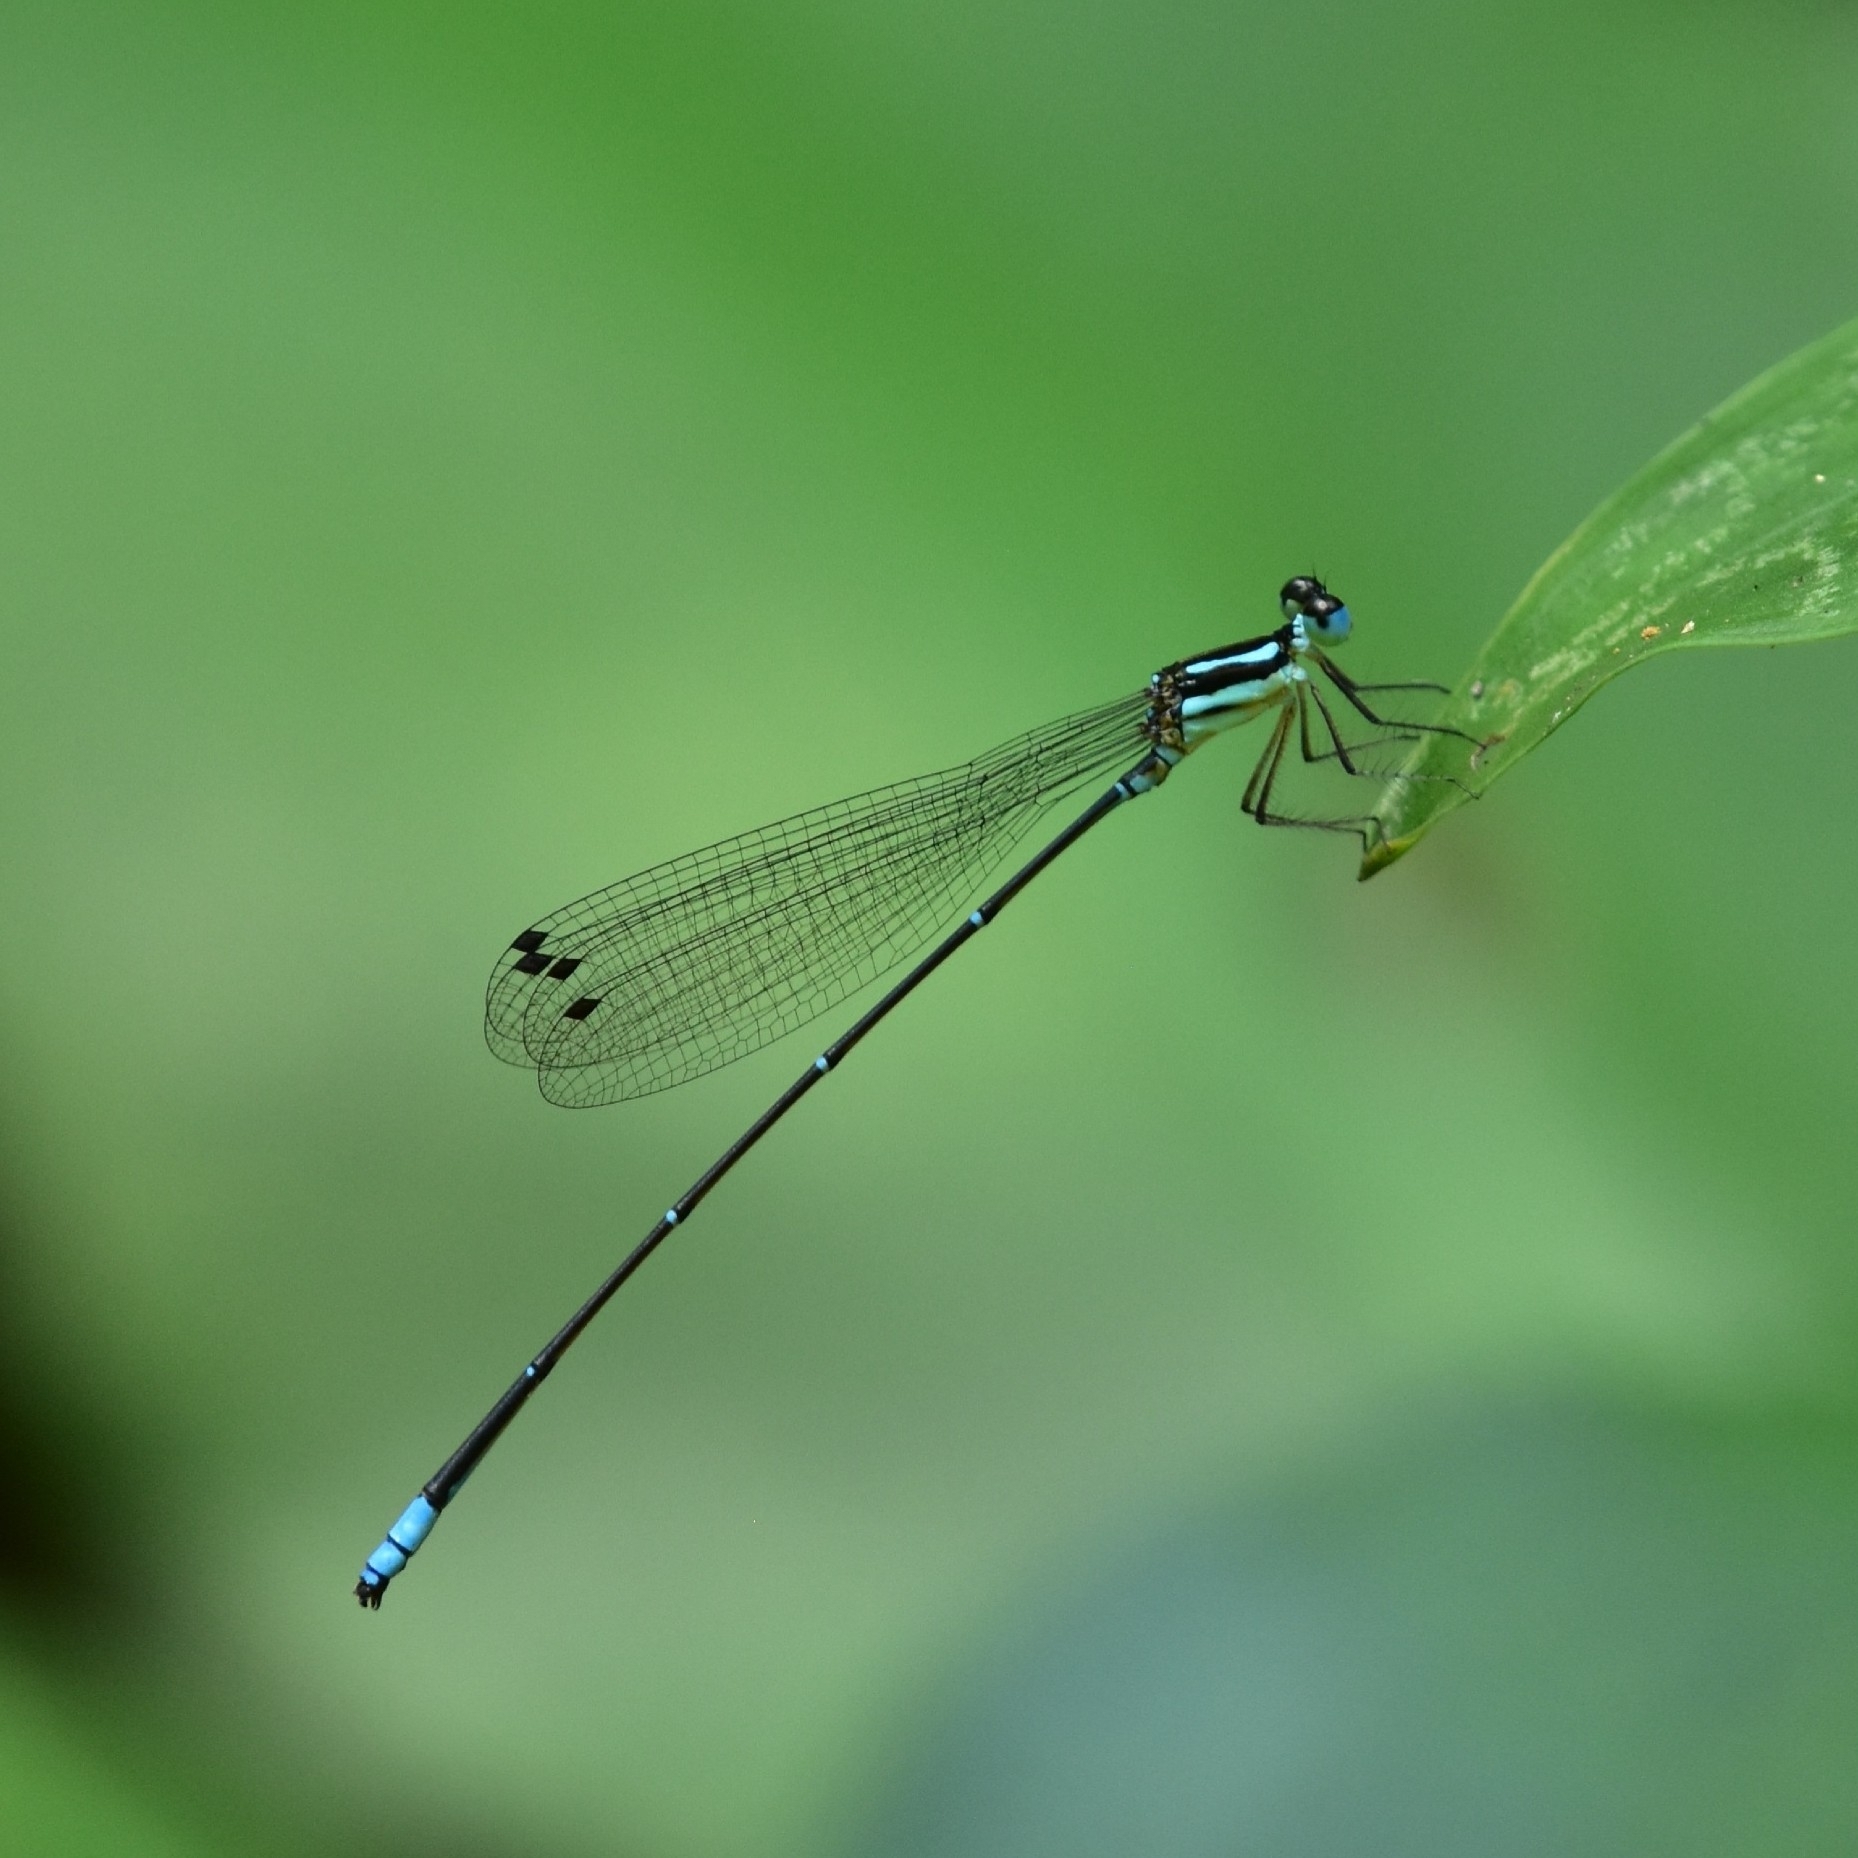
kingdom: Animalia
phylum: Arthropoda
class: Insecta
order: Odonata
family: Platycnemididae
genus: Caconeura
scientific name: Caconeura risi
